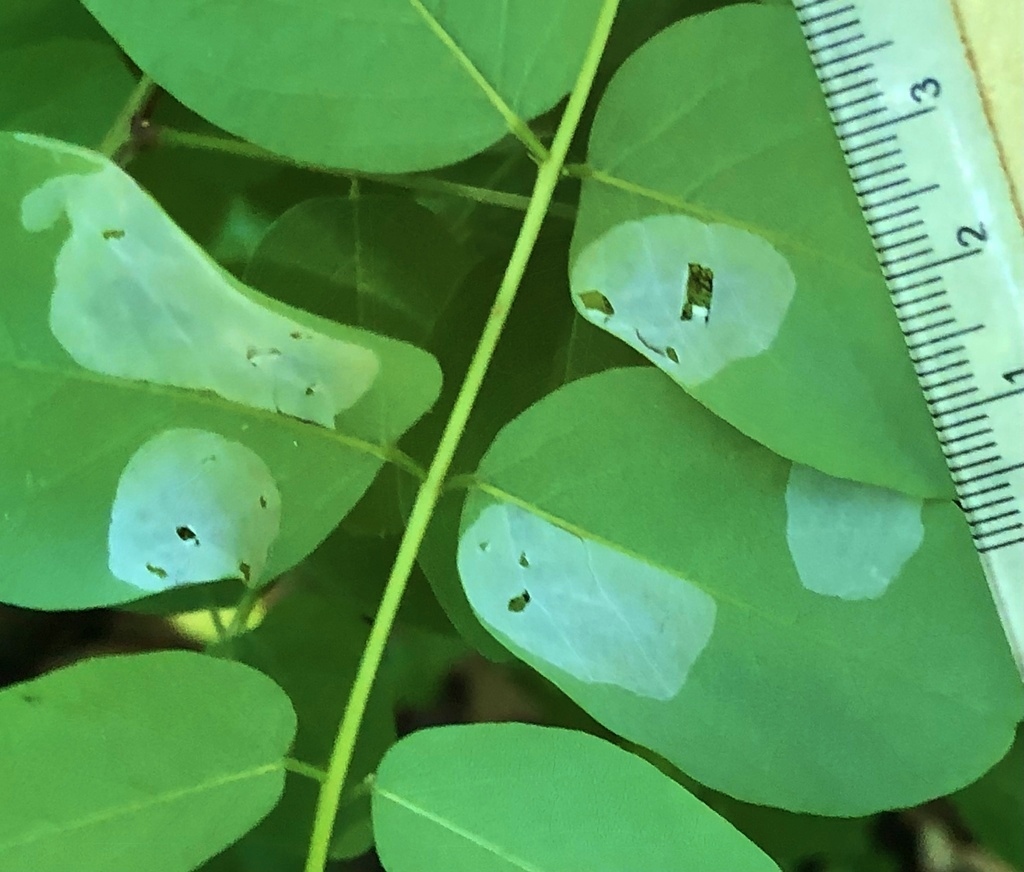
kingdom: Animalia
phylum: Arthropoda
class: Insecta
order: Lepidoptera
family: Gracillariidae
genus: Macrosaccus
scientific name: Macrosaccus robiniella
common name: Leaf blotch miner moth
